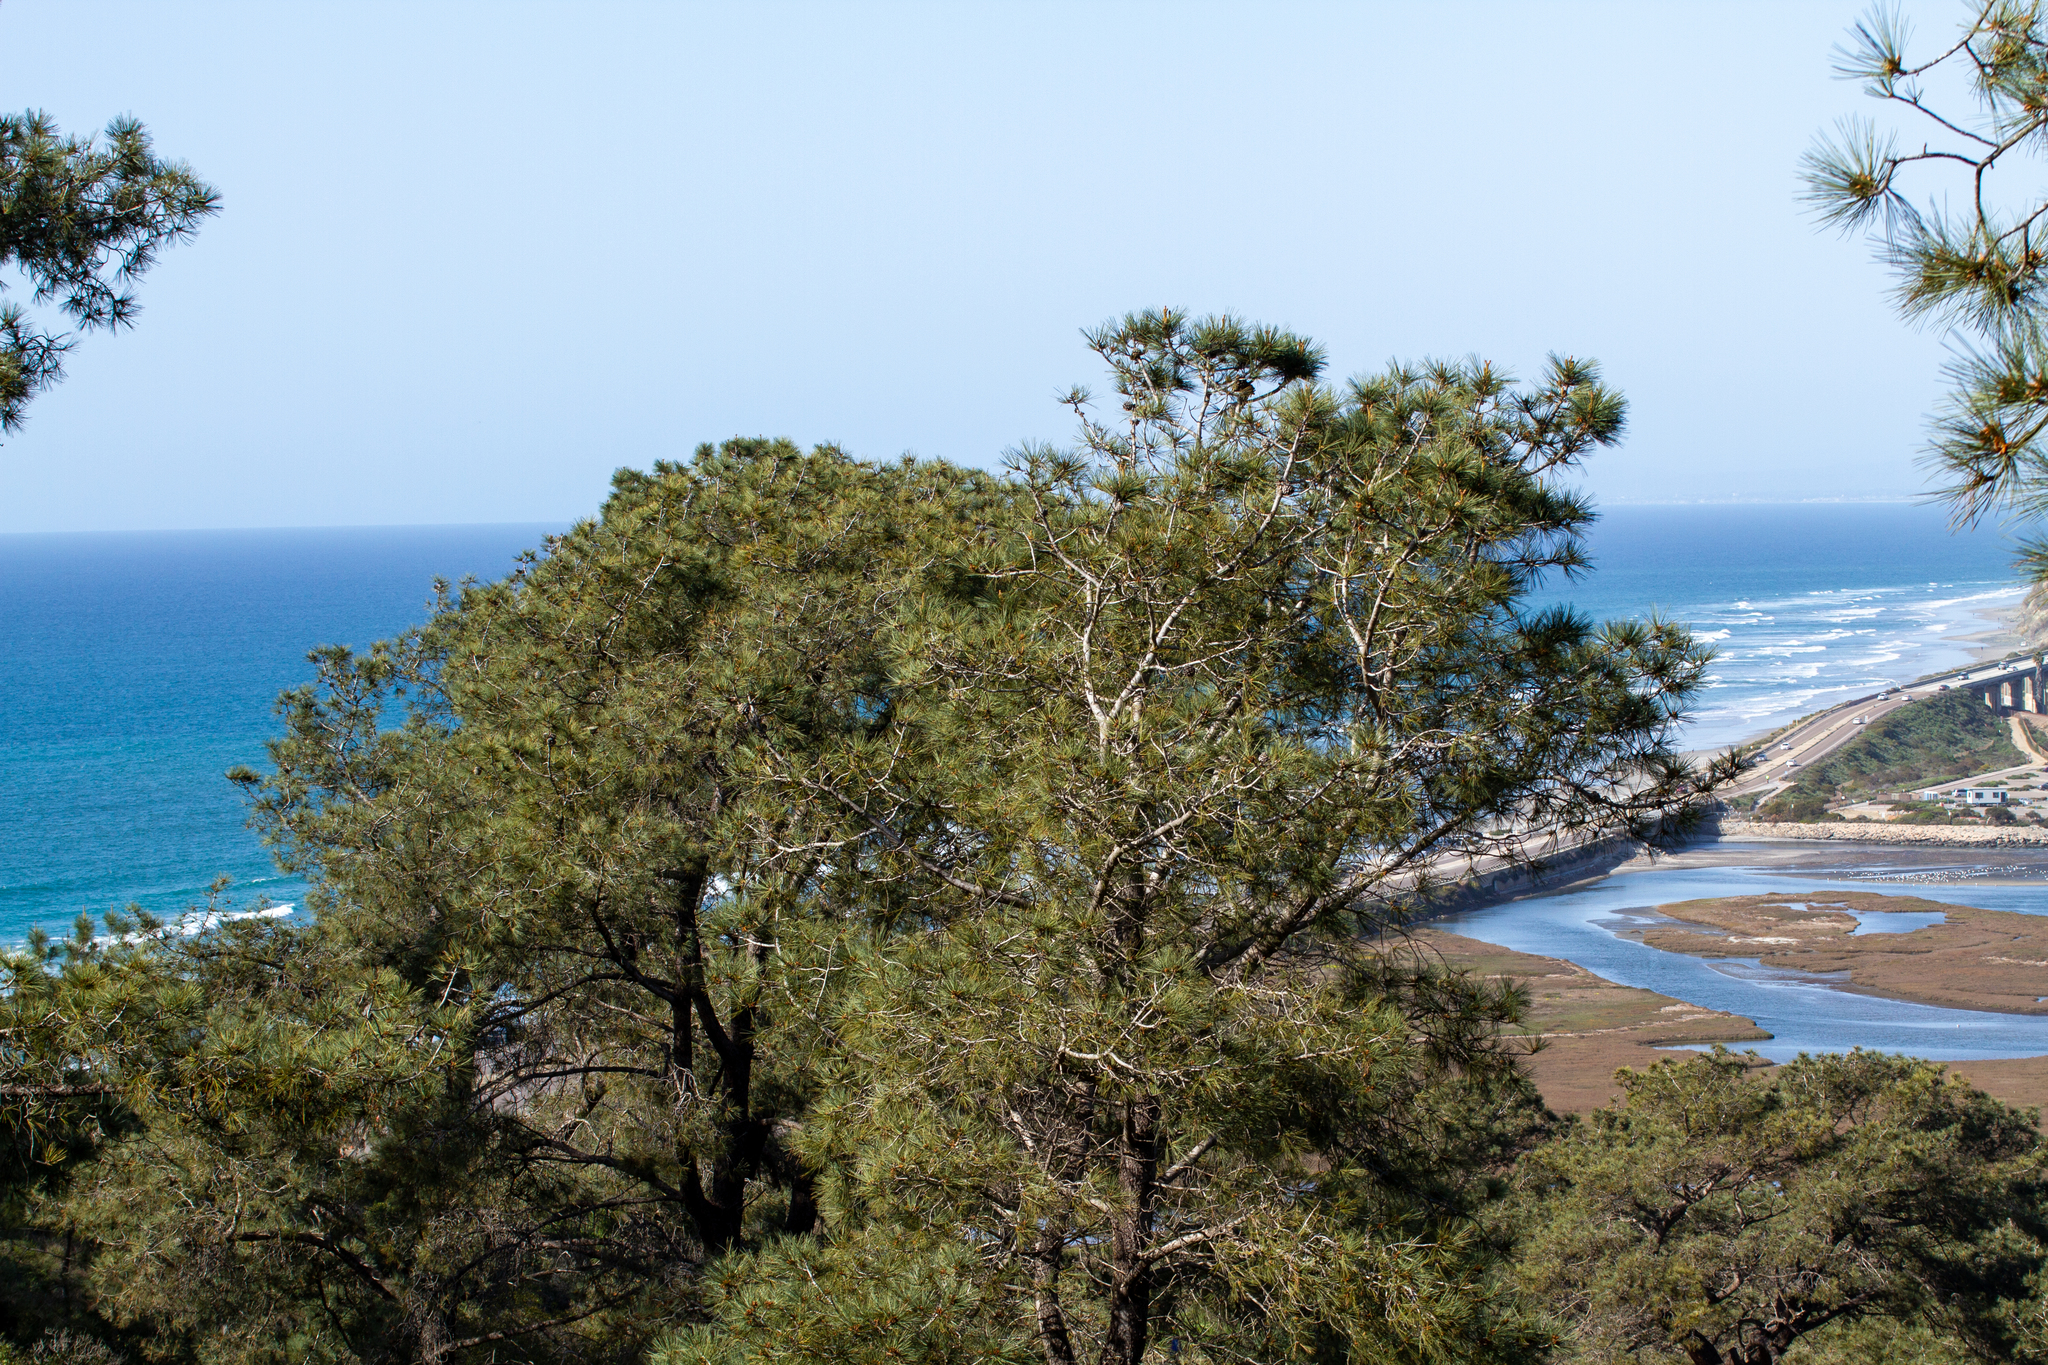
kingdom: Plantae
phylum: Tracheophyta
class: Pinopsida
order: Pinales
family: Pinaceae
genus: Pinus
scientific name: Pinus torreyana
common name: Torrey pine
